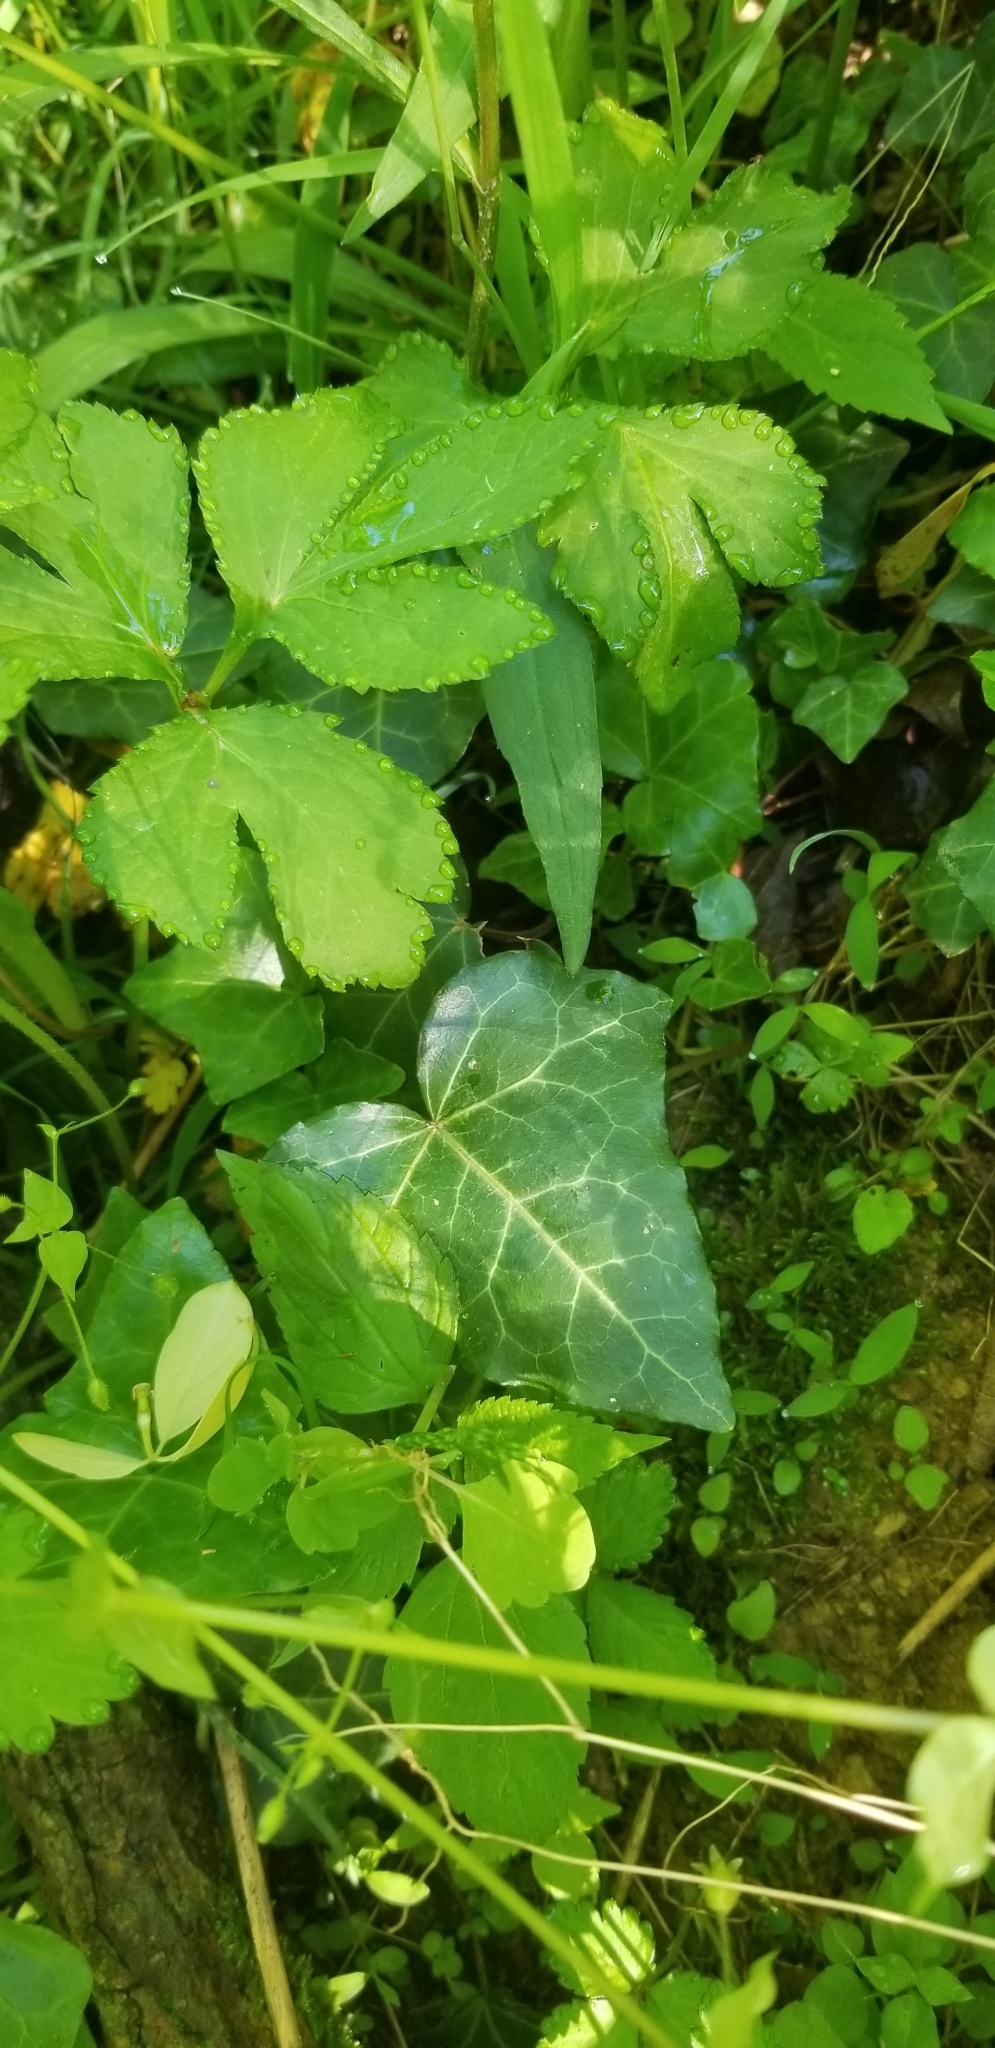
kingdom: Plantae
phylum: Tracheophyta
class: Magnoliopsida
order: Apiales
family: Araliaceae
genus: Hedera
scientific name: Hedera helix
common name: Ivy
